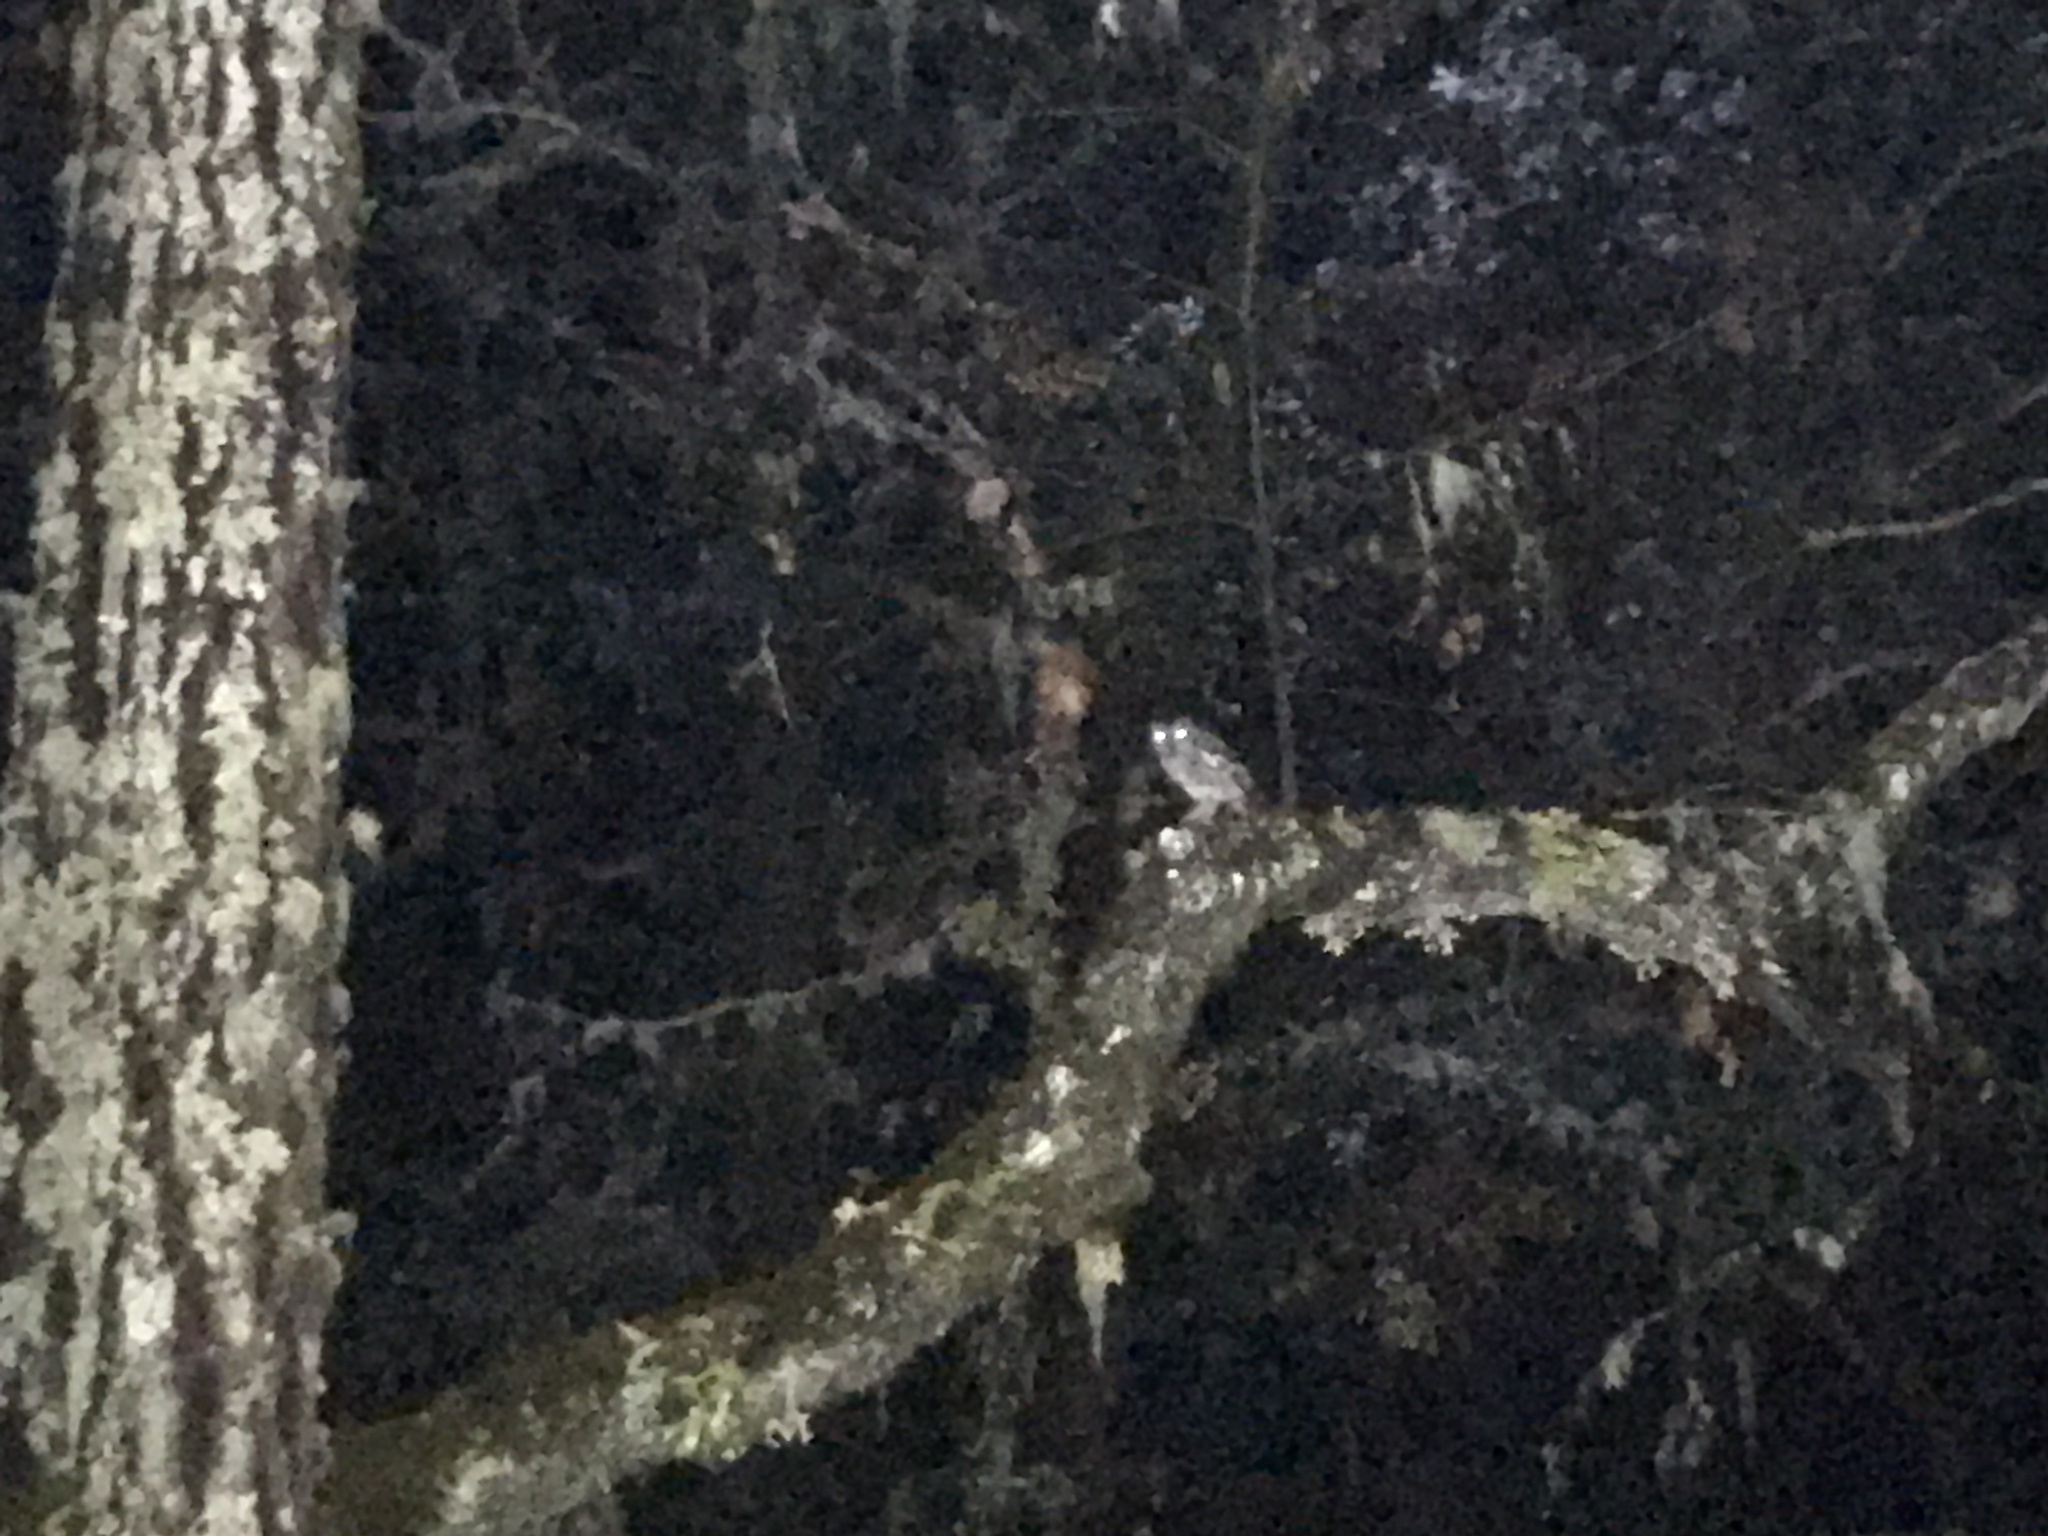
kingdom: Animalia
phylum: Chordata
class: Aves
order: Strigiformes
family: Strigidae
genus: Megascops
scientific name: Megascops kennicottii
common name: Western screech-owl
